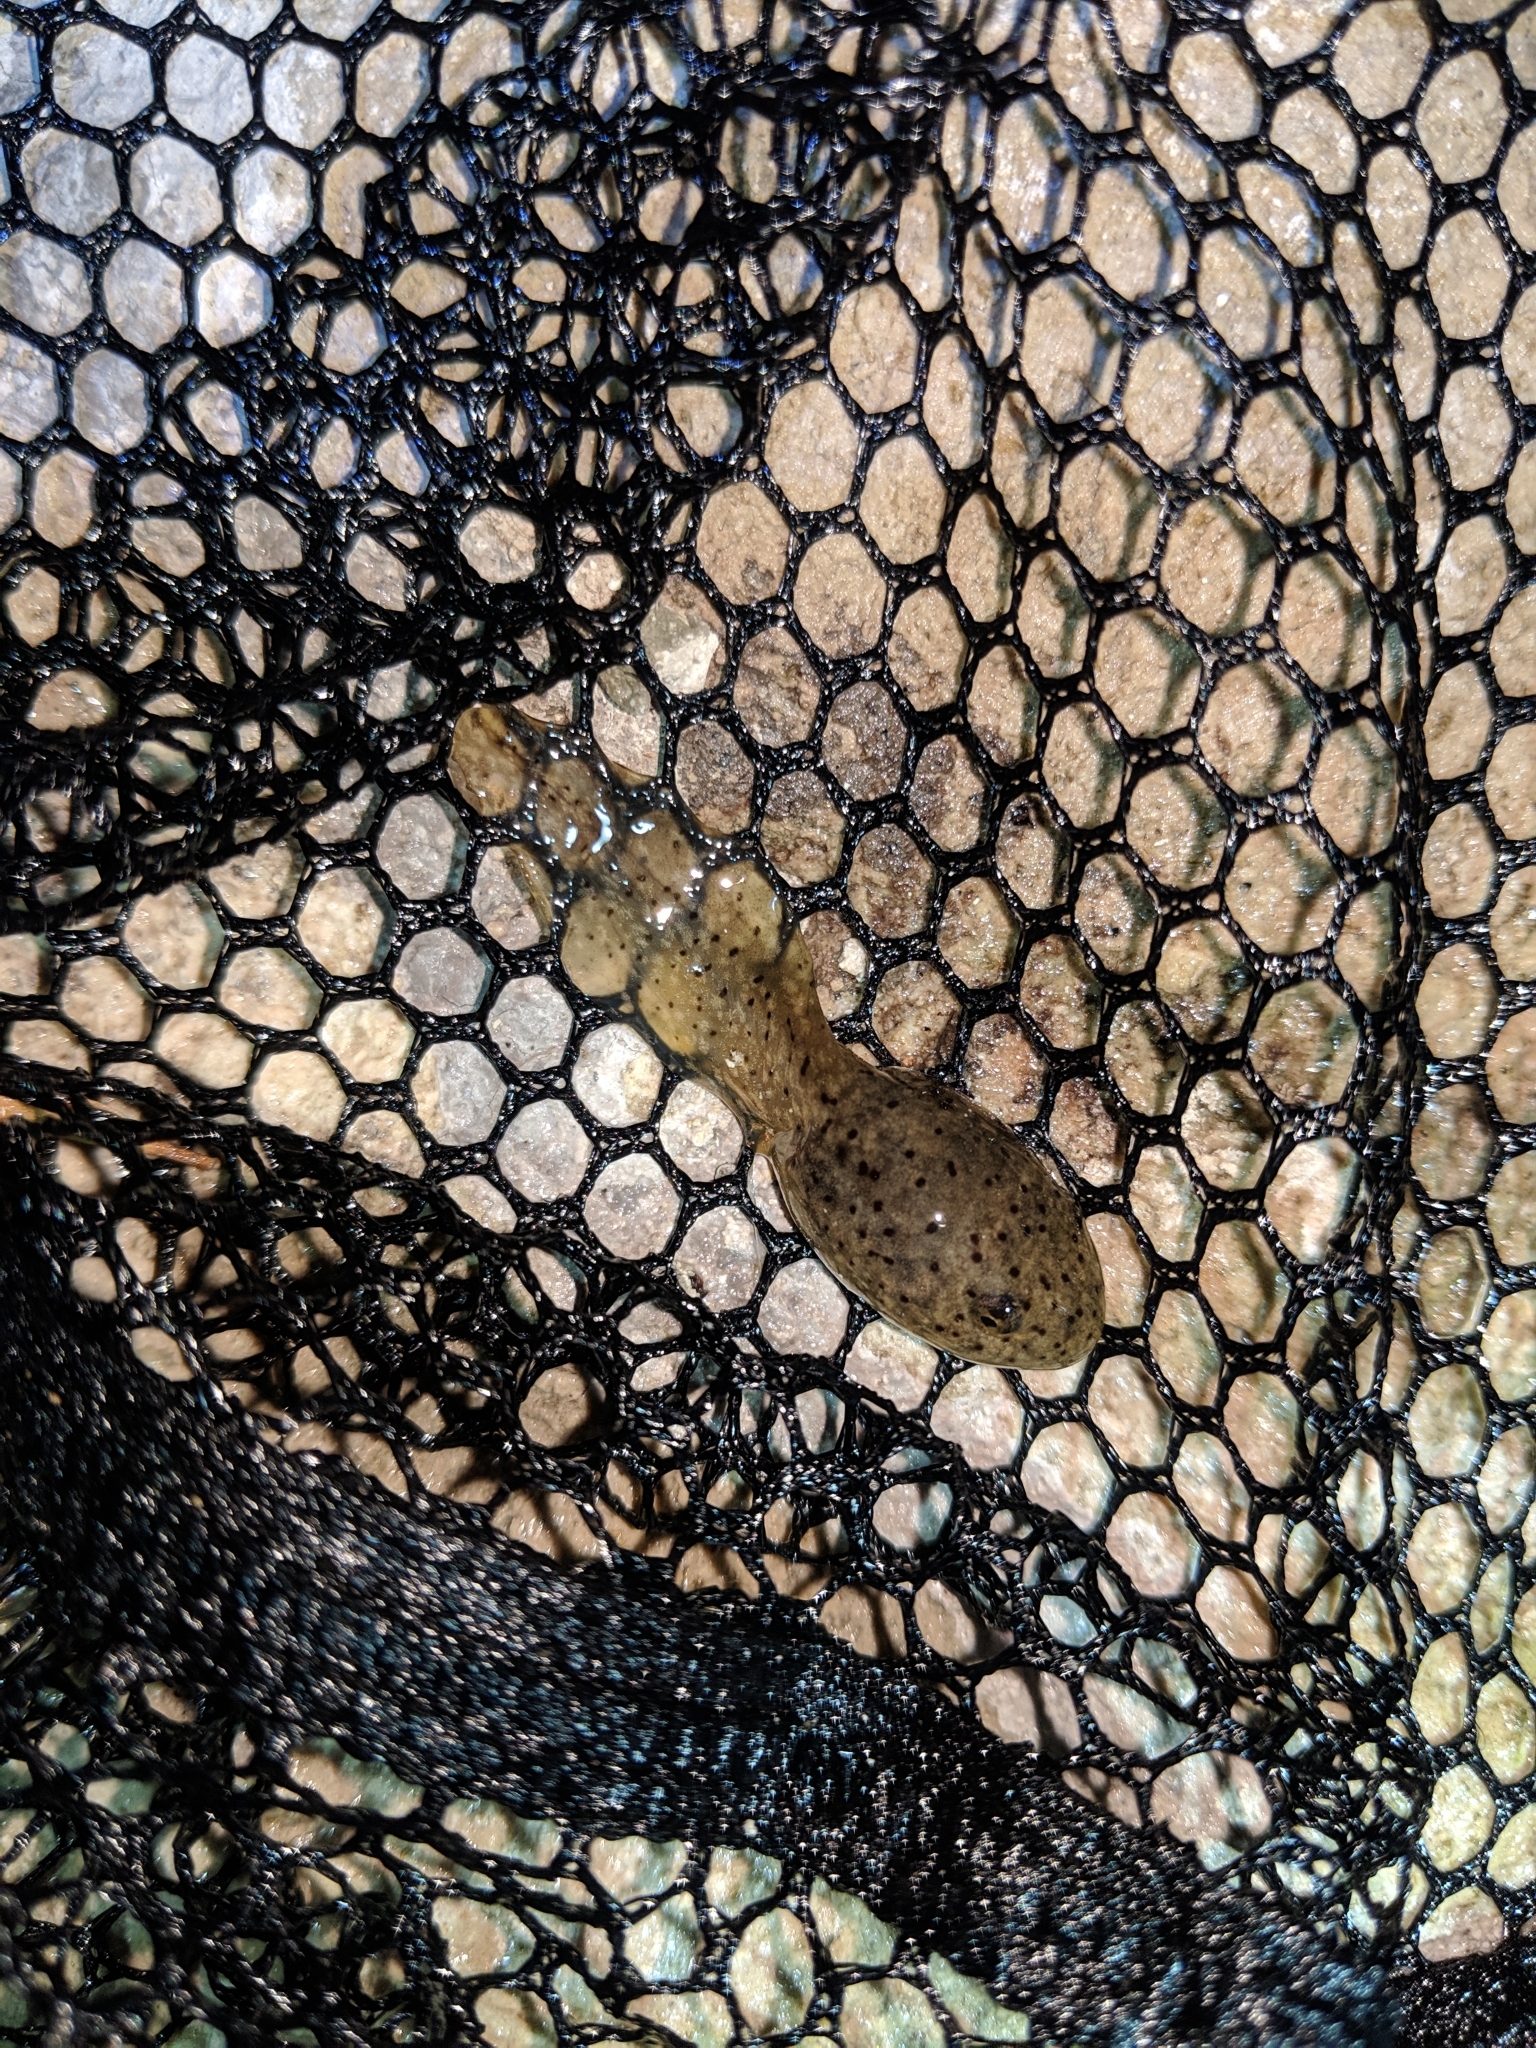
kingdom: Animalia
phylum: Chordata
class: Amphibia
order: Anura
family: Ranidae
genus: Lithobates
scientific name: Lithobates catesbeianus
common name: American bullfrog
